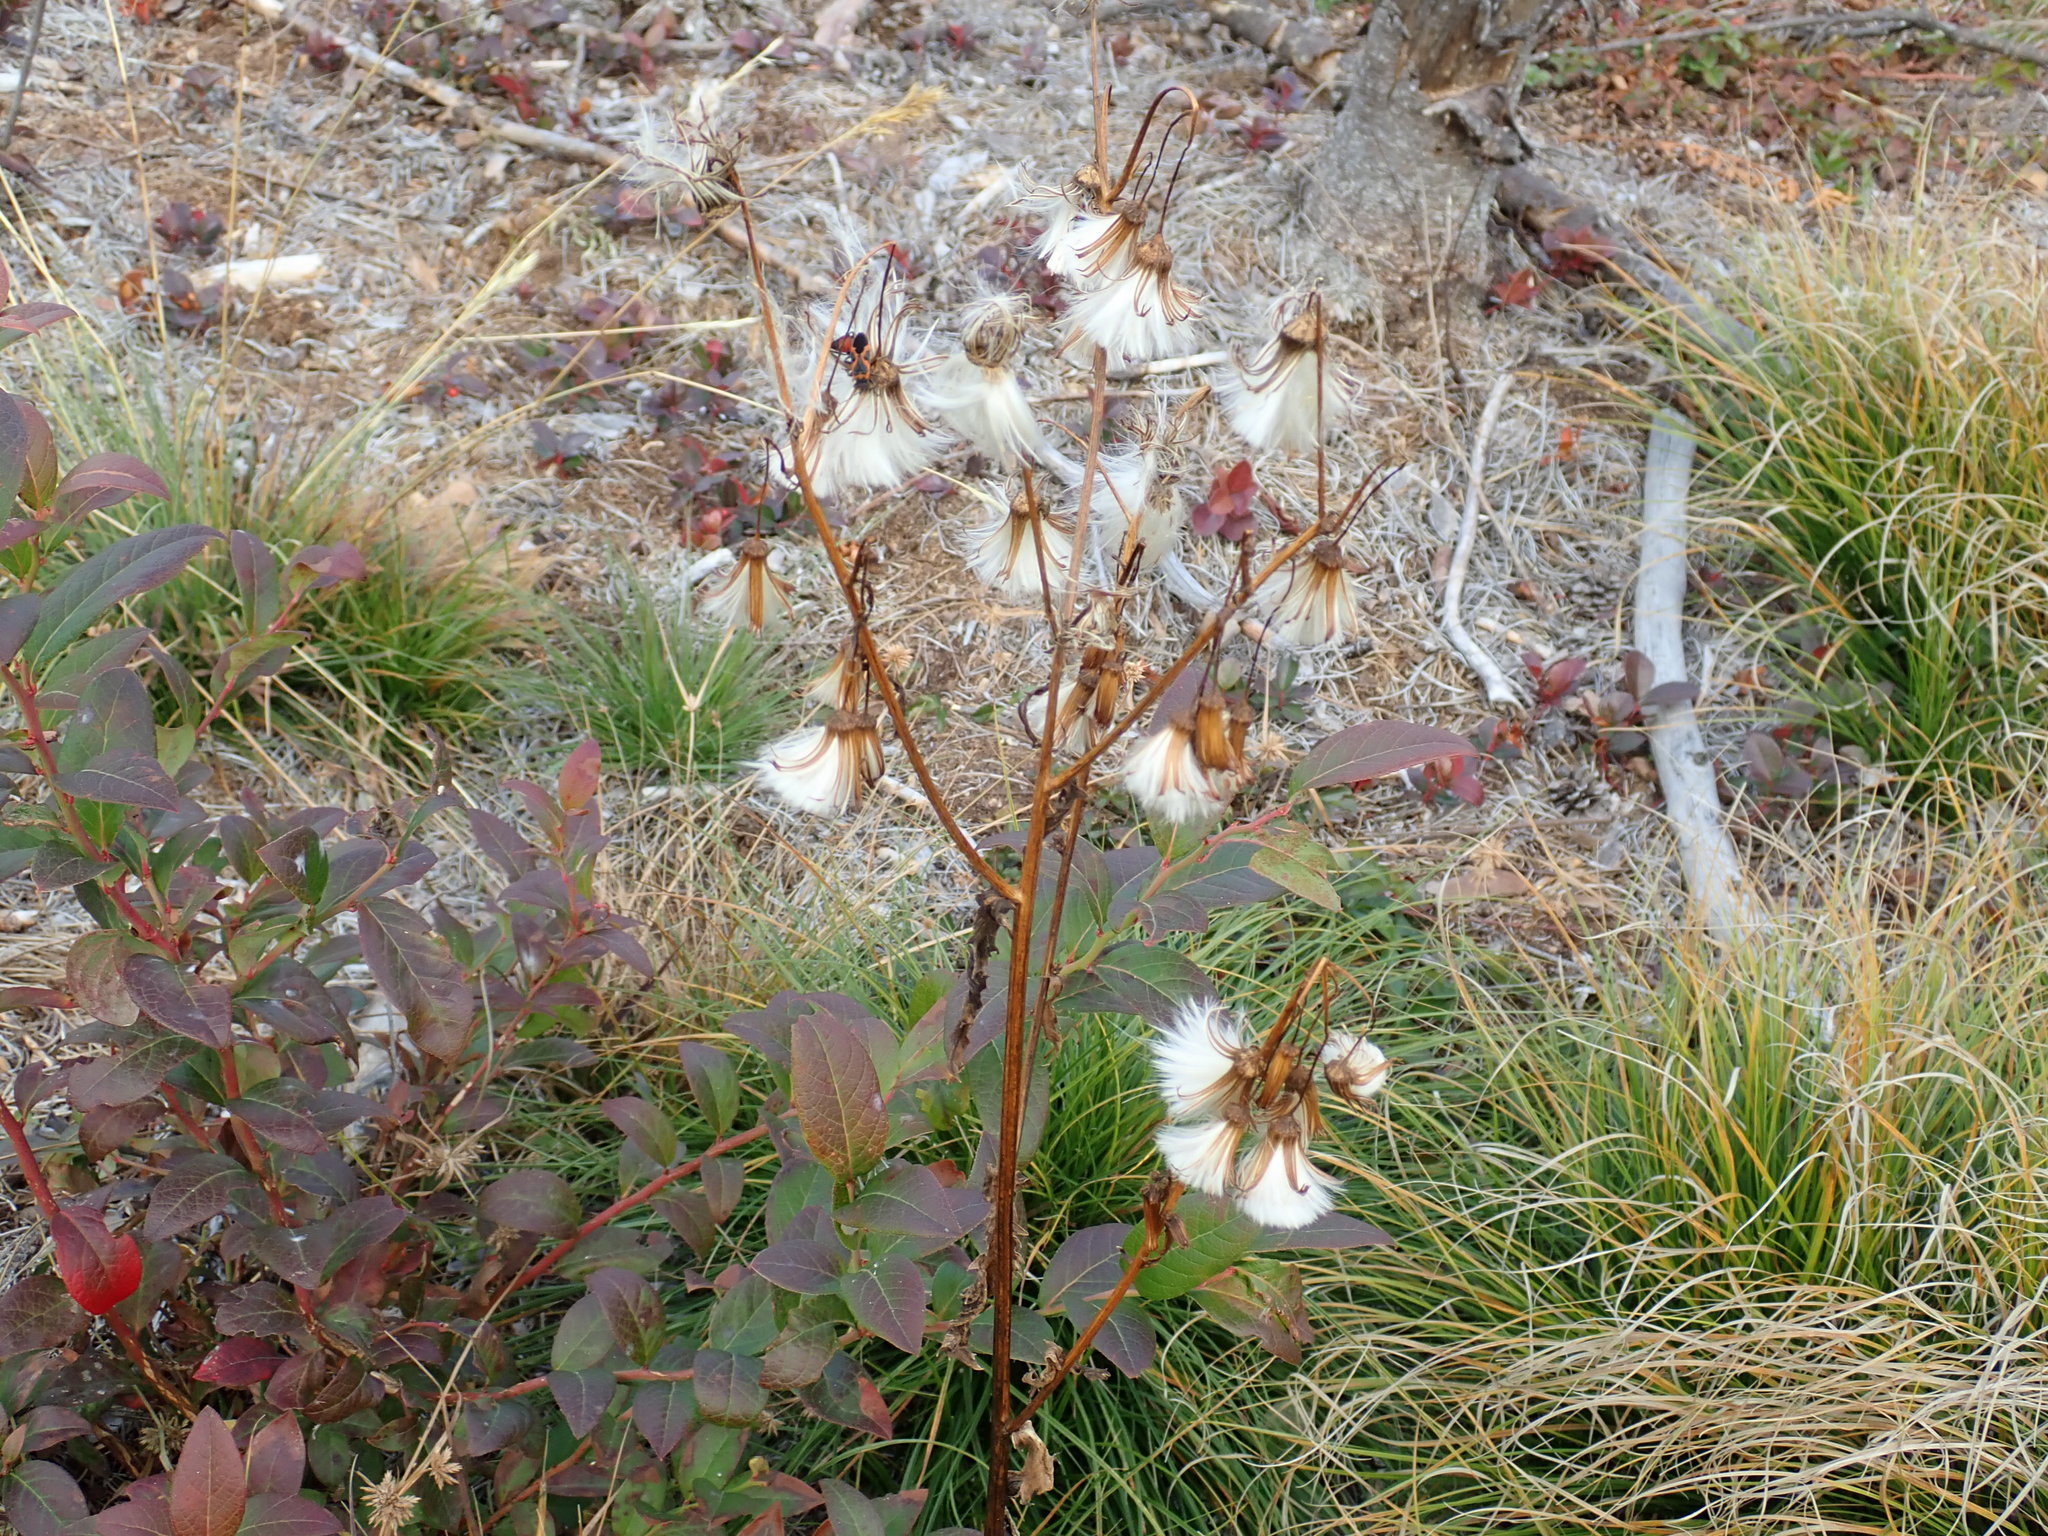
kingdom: Plantae
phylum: Tracheophyta
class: Magnoliopsida
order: Asterales
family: Asteraceae
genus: Erechtites
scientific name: Erechtites hieraciifolius
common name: American burnweed
